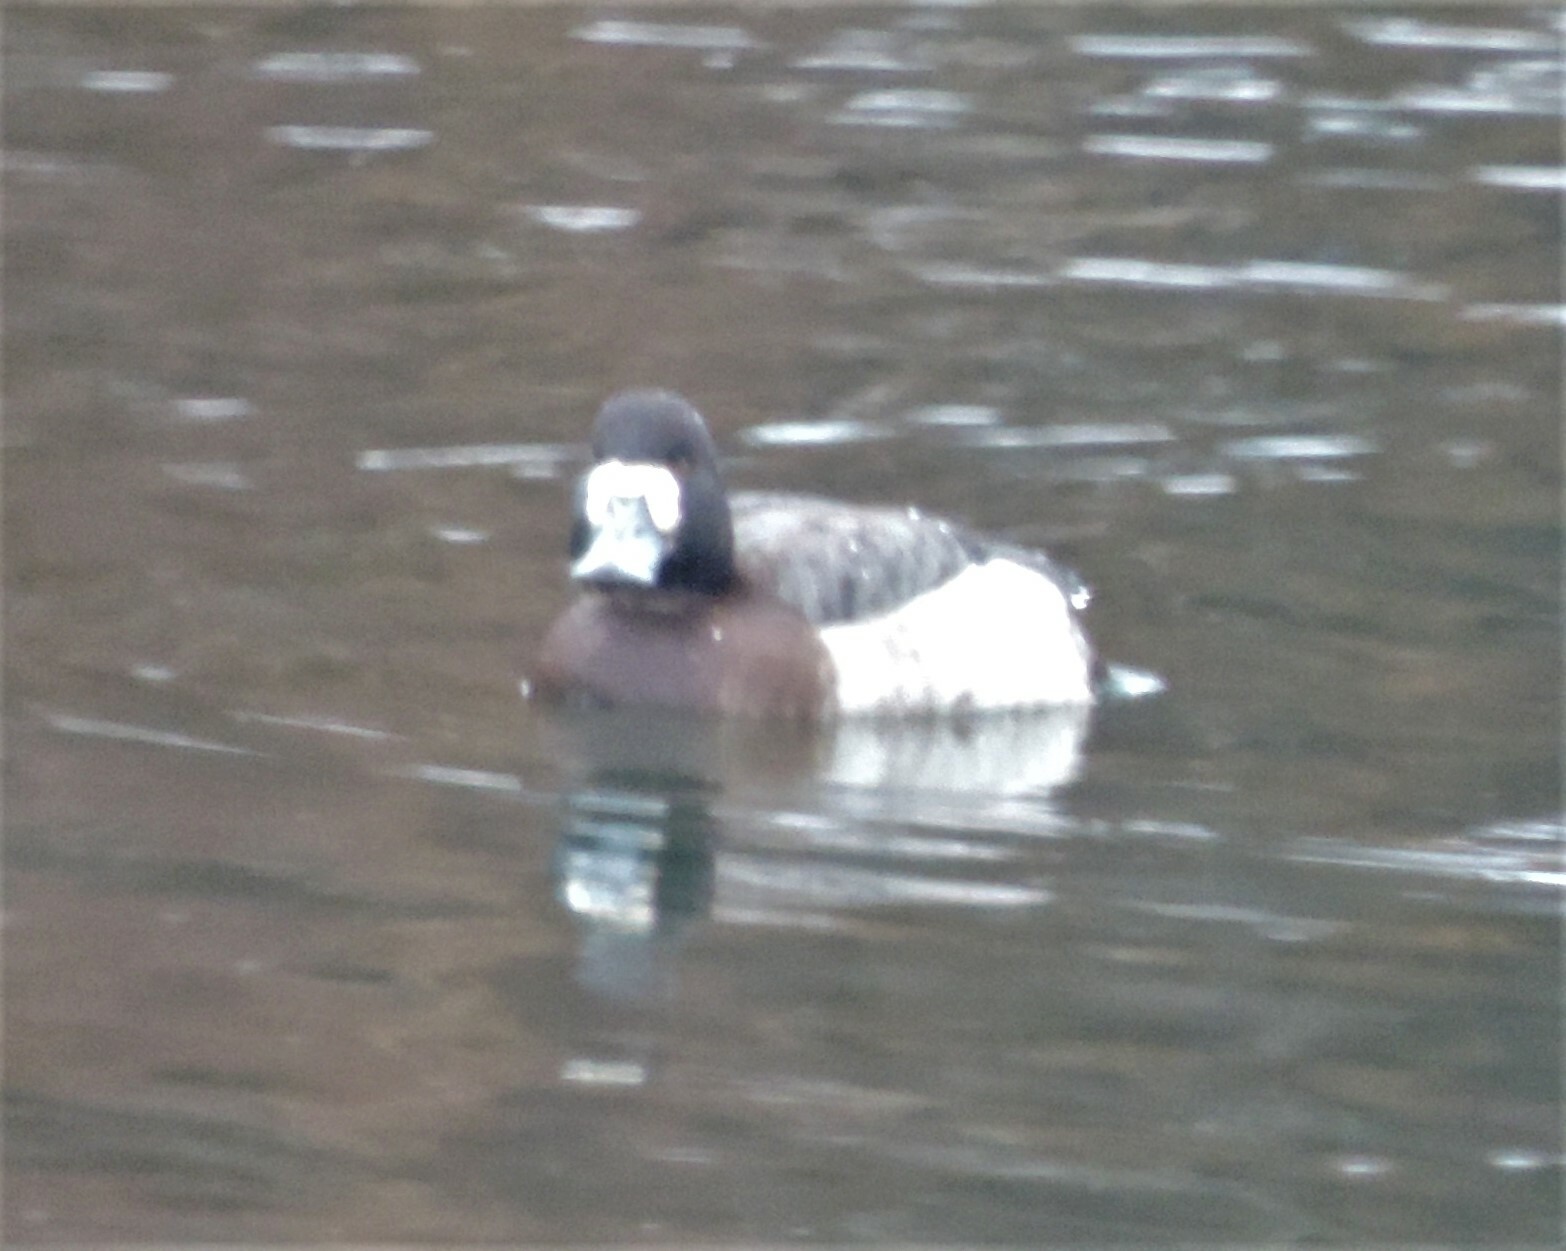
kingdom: Animalia
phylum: Chordata
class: Aves
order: Anseriformes
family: Anatidae
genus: Aythya
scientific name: Aythya marila
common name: Greater scaup
